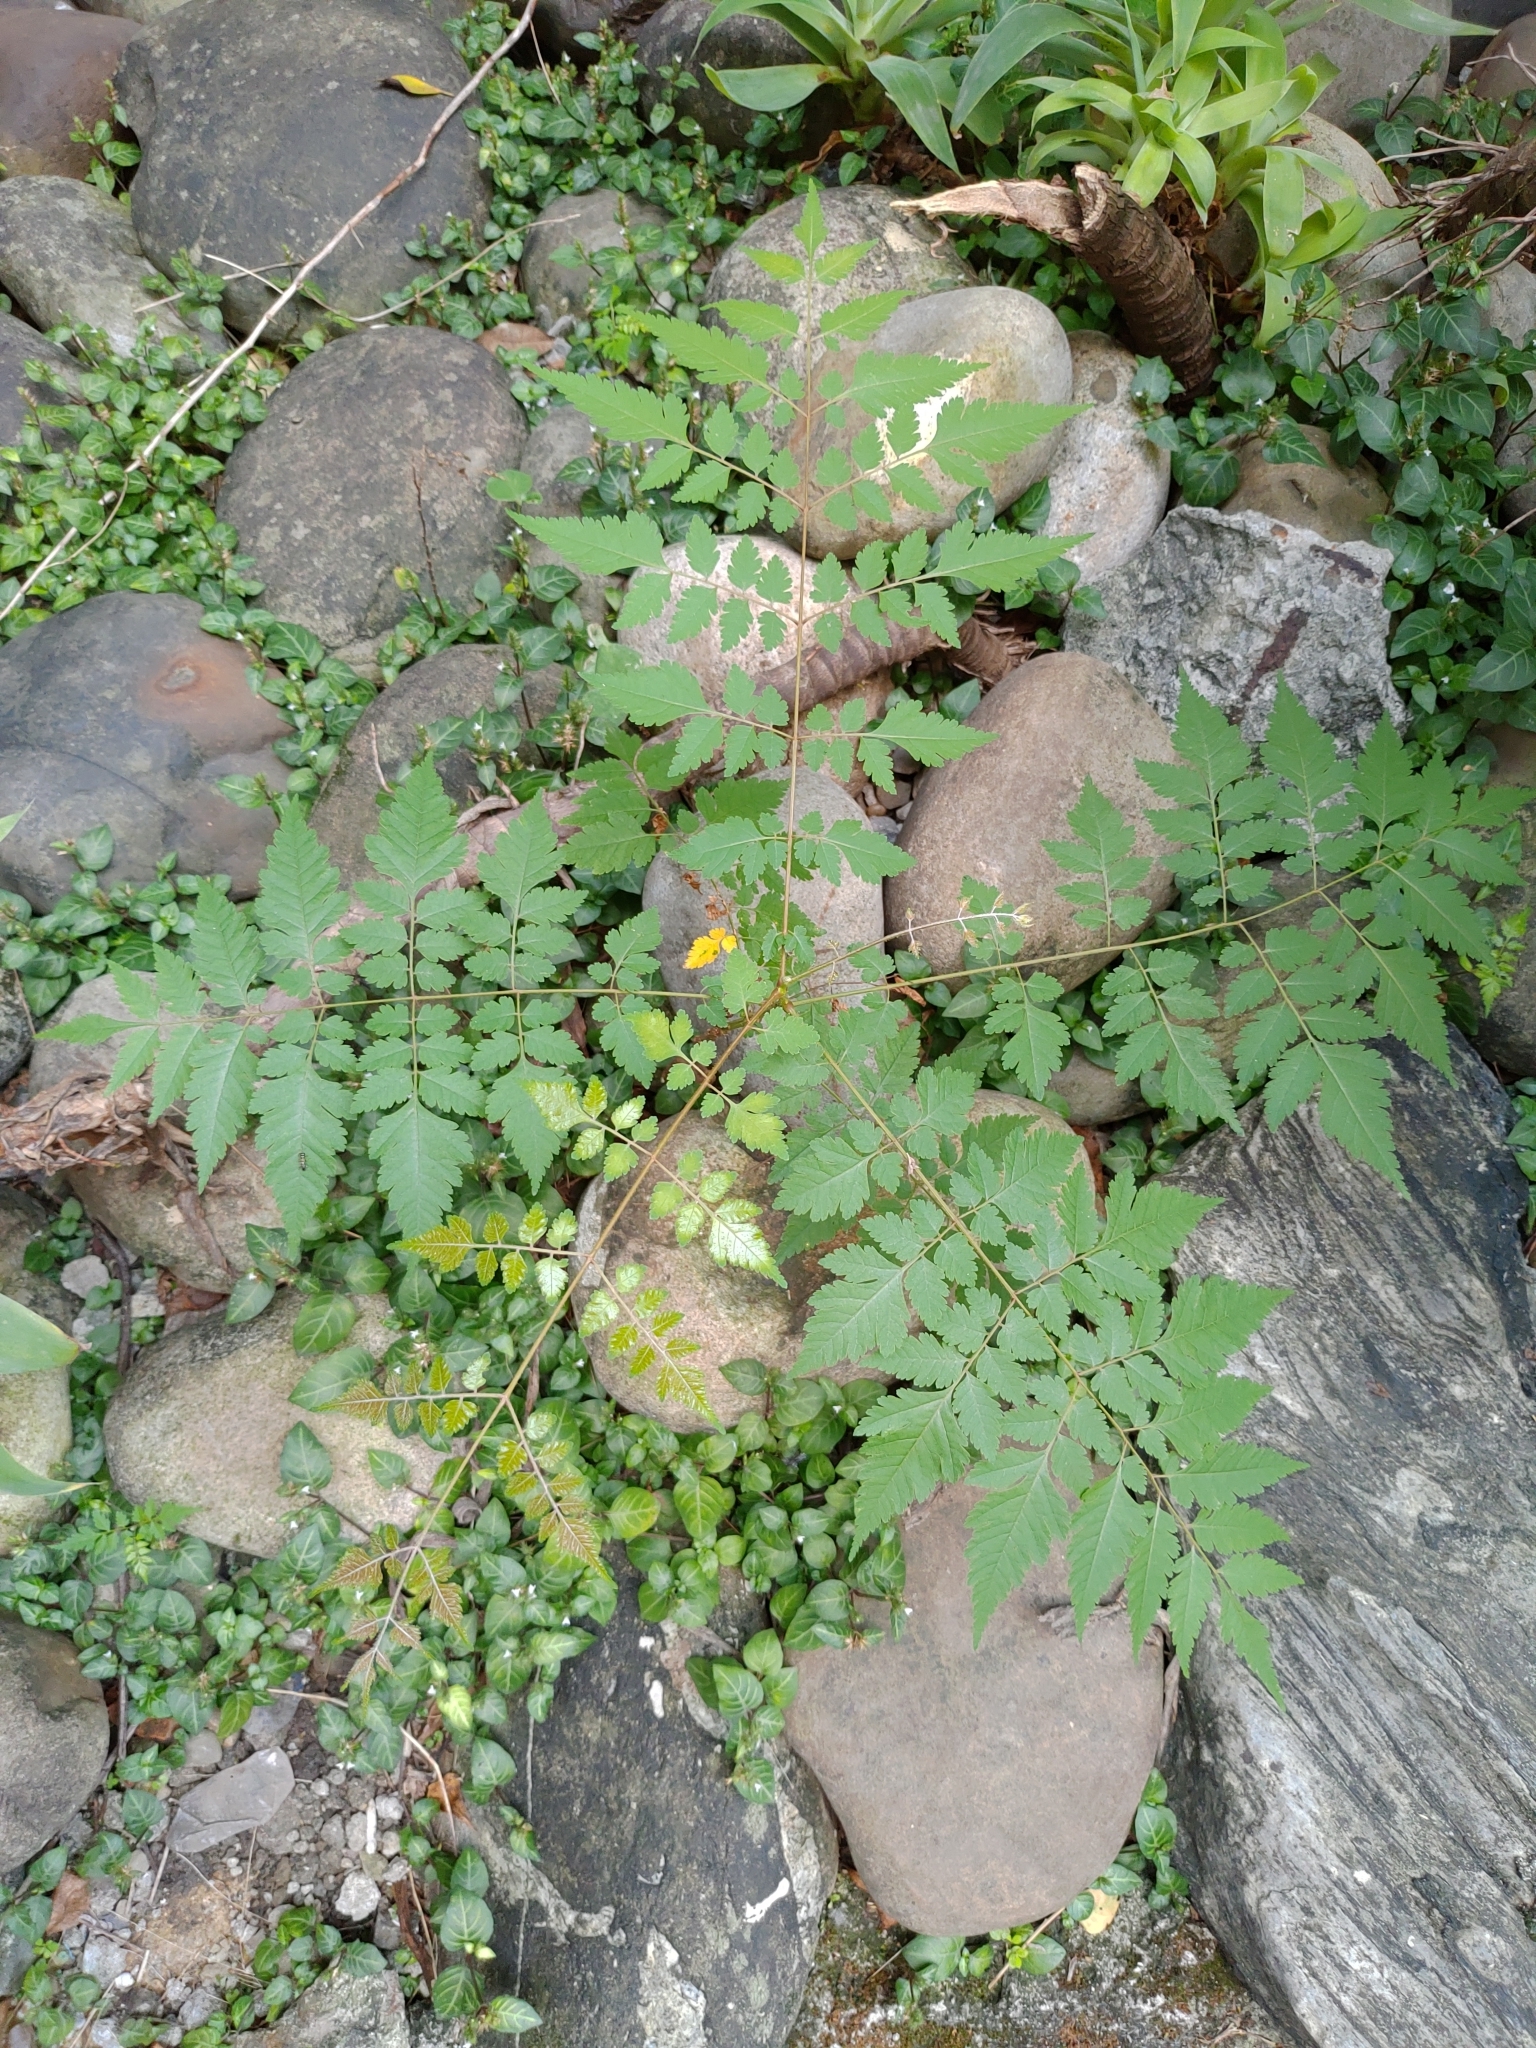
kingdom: Plantae
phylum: Tracheophyta
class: Magnoliopsida
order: Sapindales
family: Sapindaceae
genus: Koelreuteria
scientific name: Koelreuteria elegans
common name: Chinese flame tree
